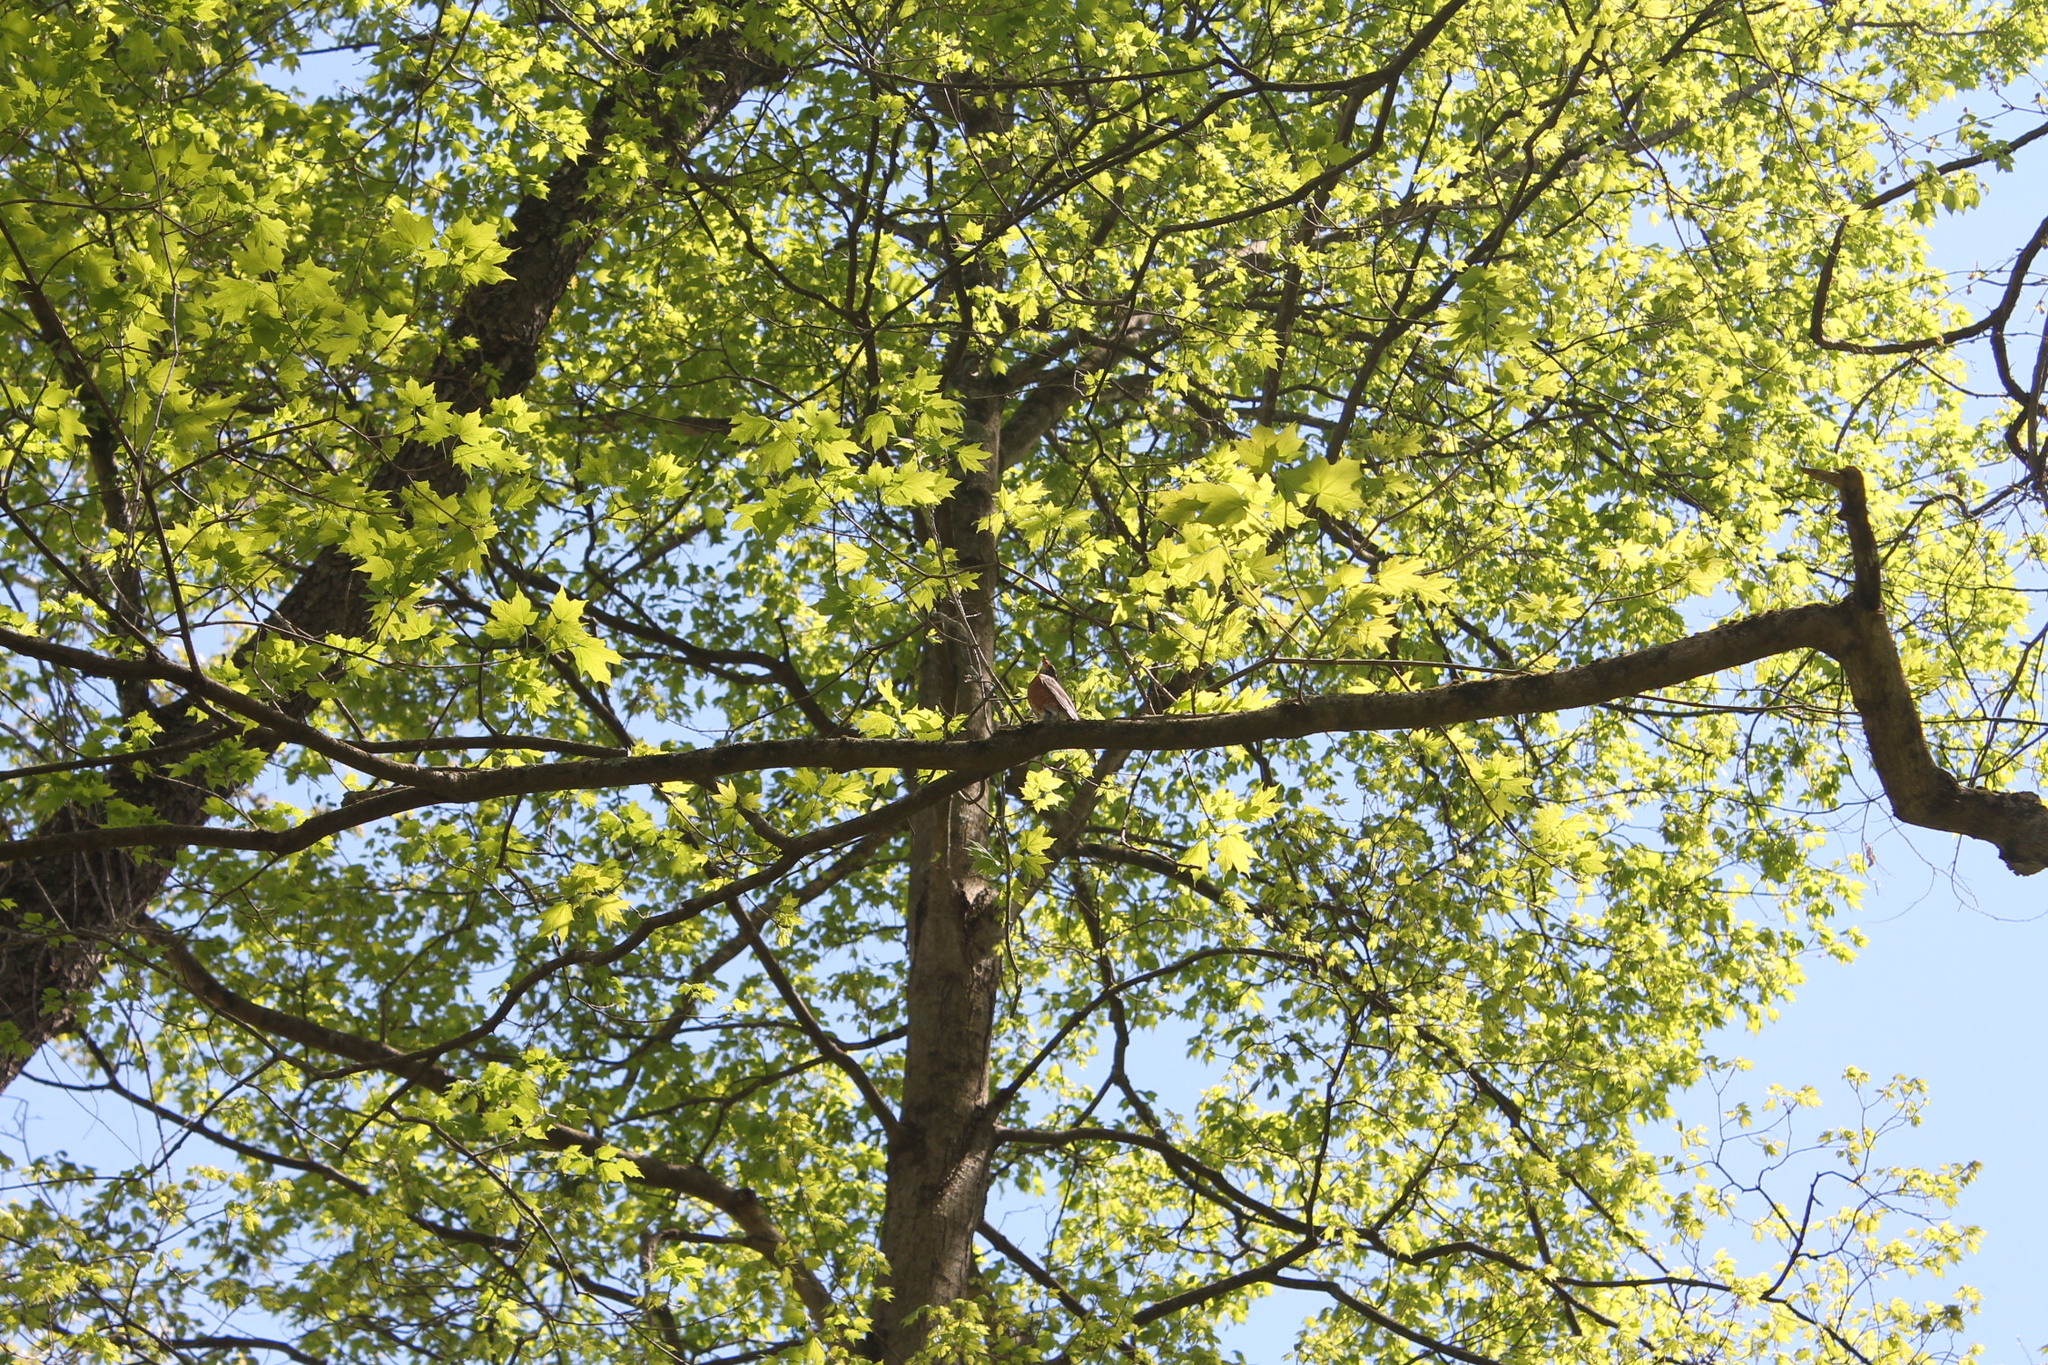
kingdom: Animalia
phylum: Chordata
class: Aves
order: Passeriformes
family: Turdidae
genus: Turdus
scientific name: Turdus migratorius
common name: American robin
